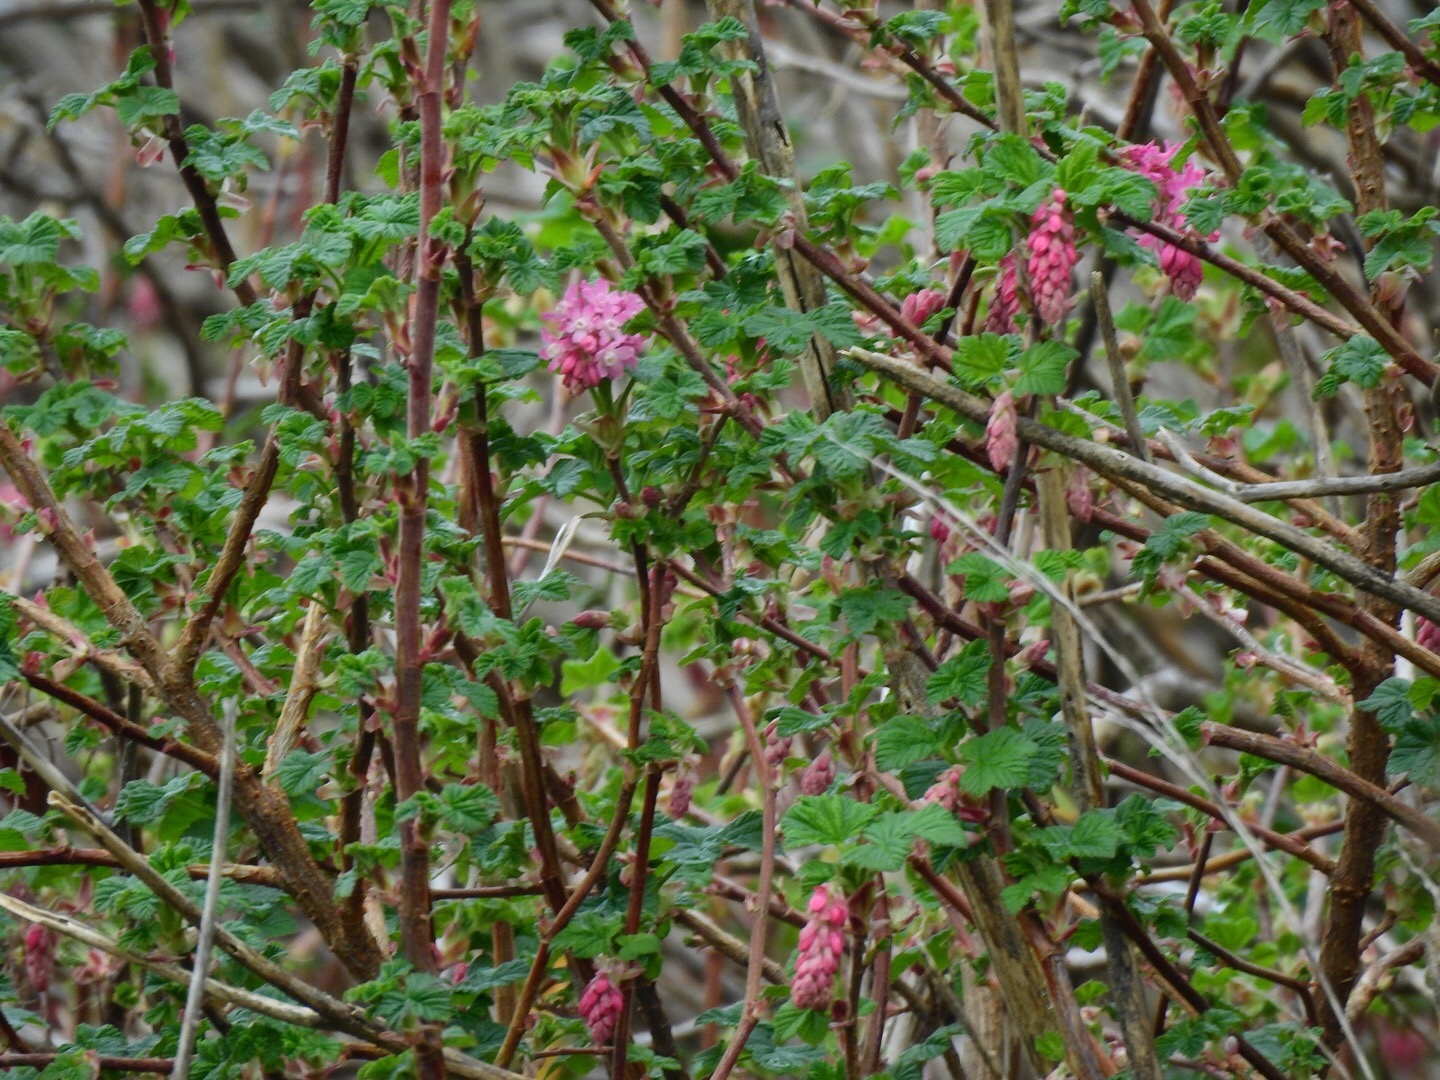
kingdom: Plantae
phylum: Tracheophyta
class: Magnoliopsida
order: Saxifragales
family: Grossulariaceae
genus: Ribes
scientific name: Ribes sanguineum
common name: Flowering currant
